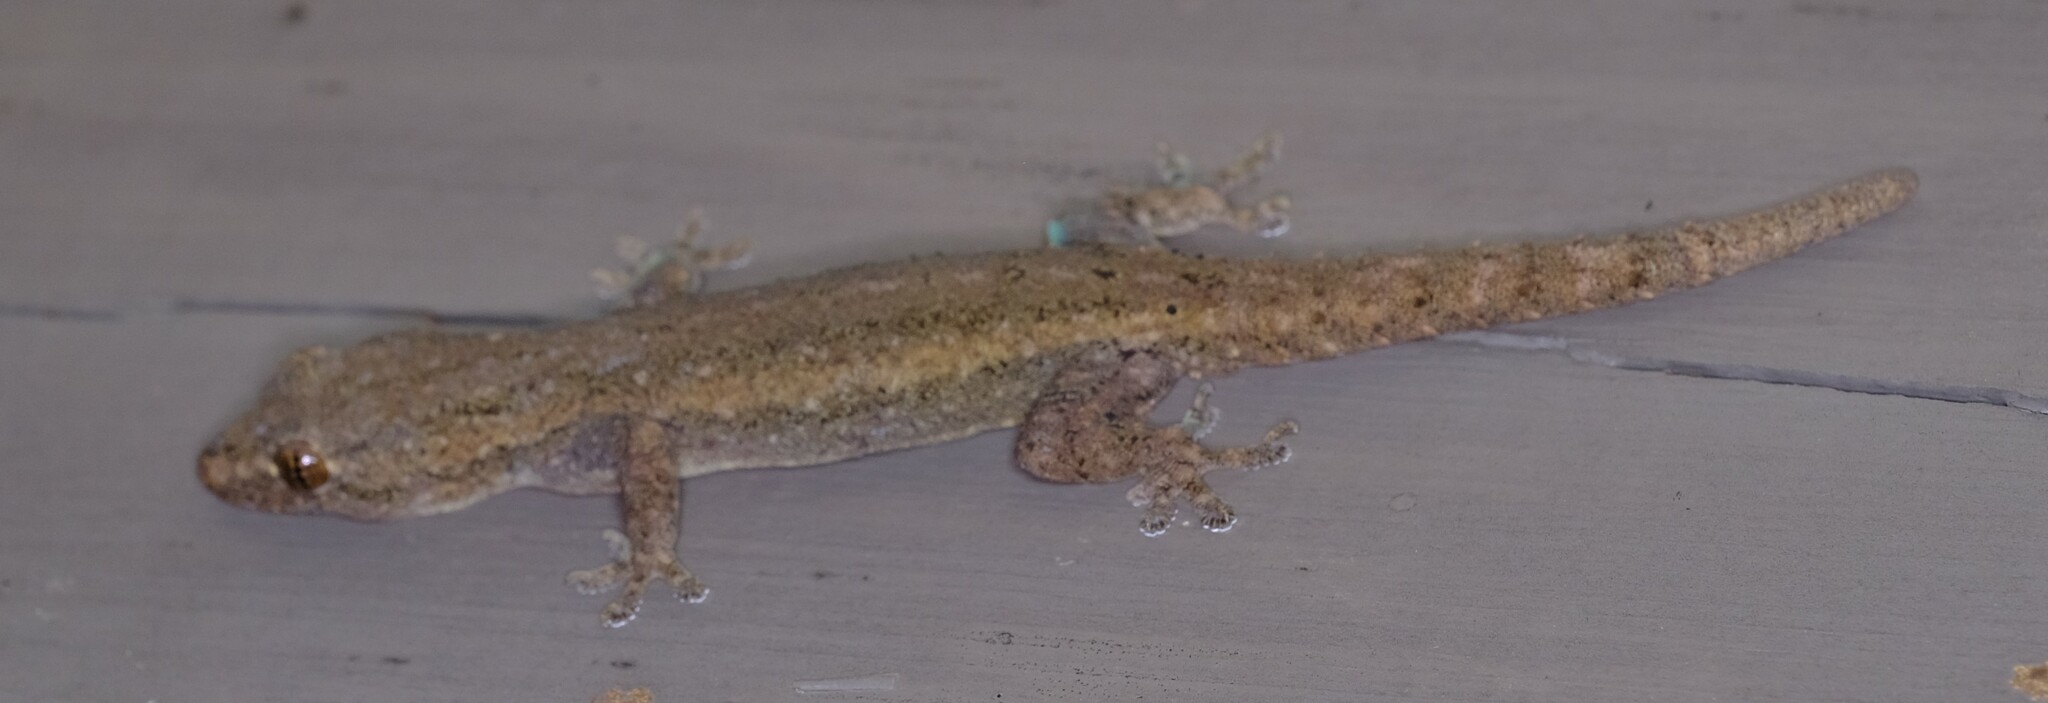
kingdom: Animalia
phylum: Chordata
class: Squamata
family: Gekkonidae
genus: Hemidactylus
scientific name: Hemidactylus frenatus
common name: Common house gecko
